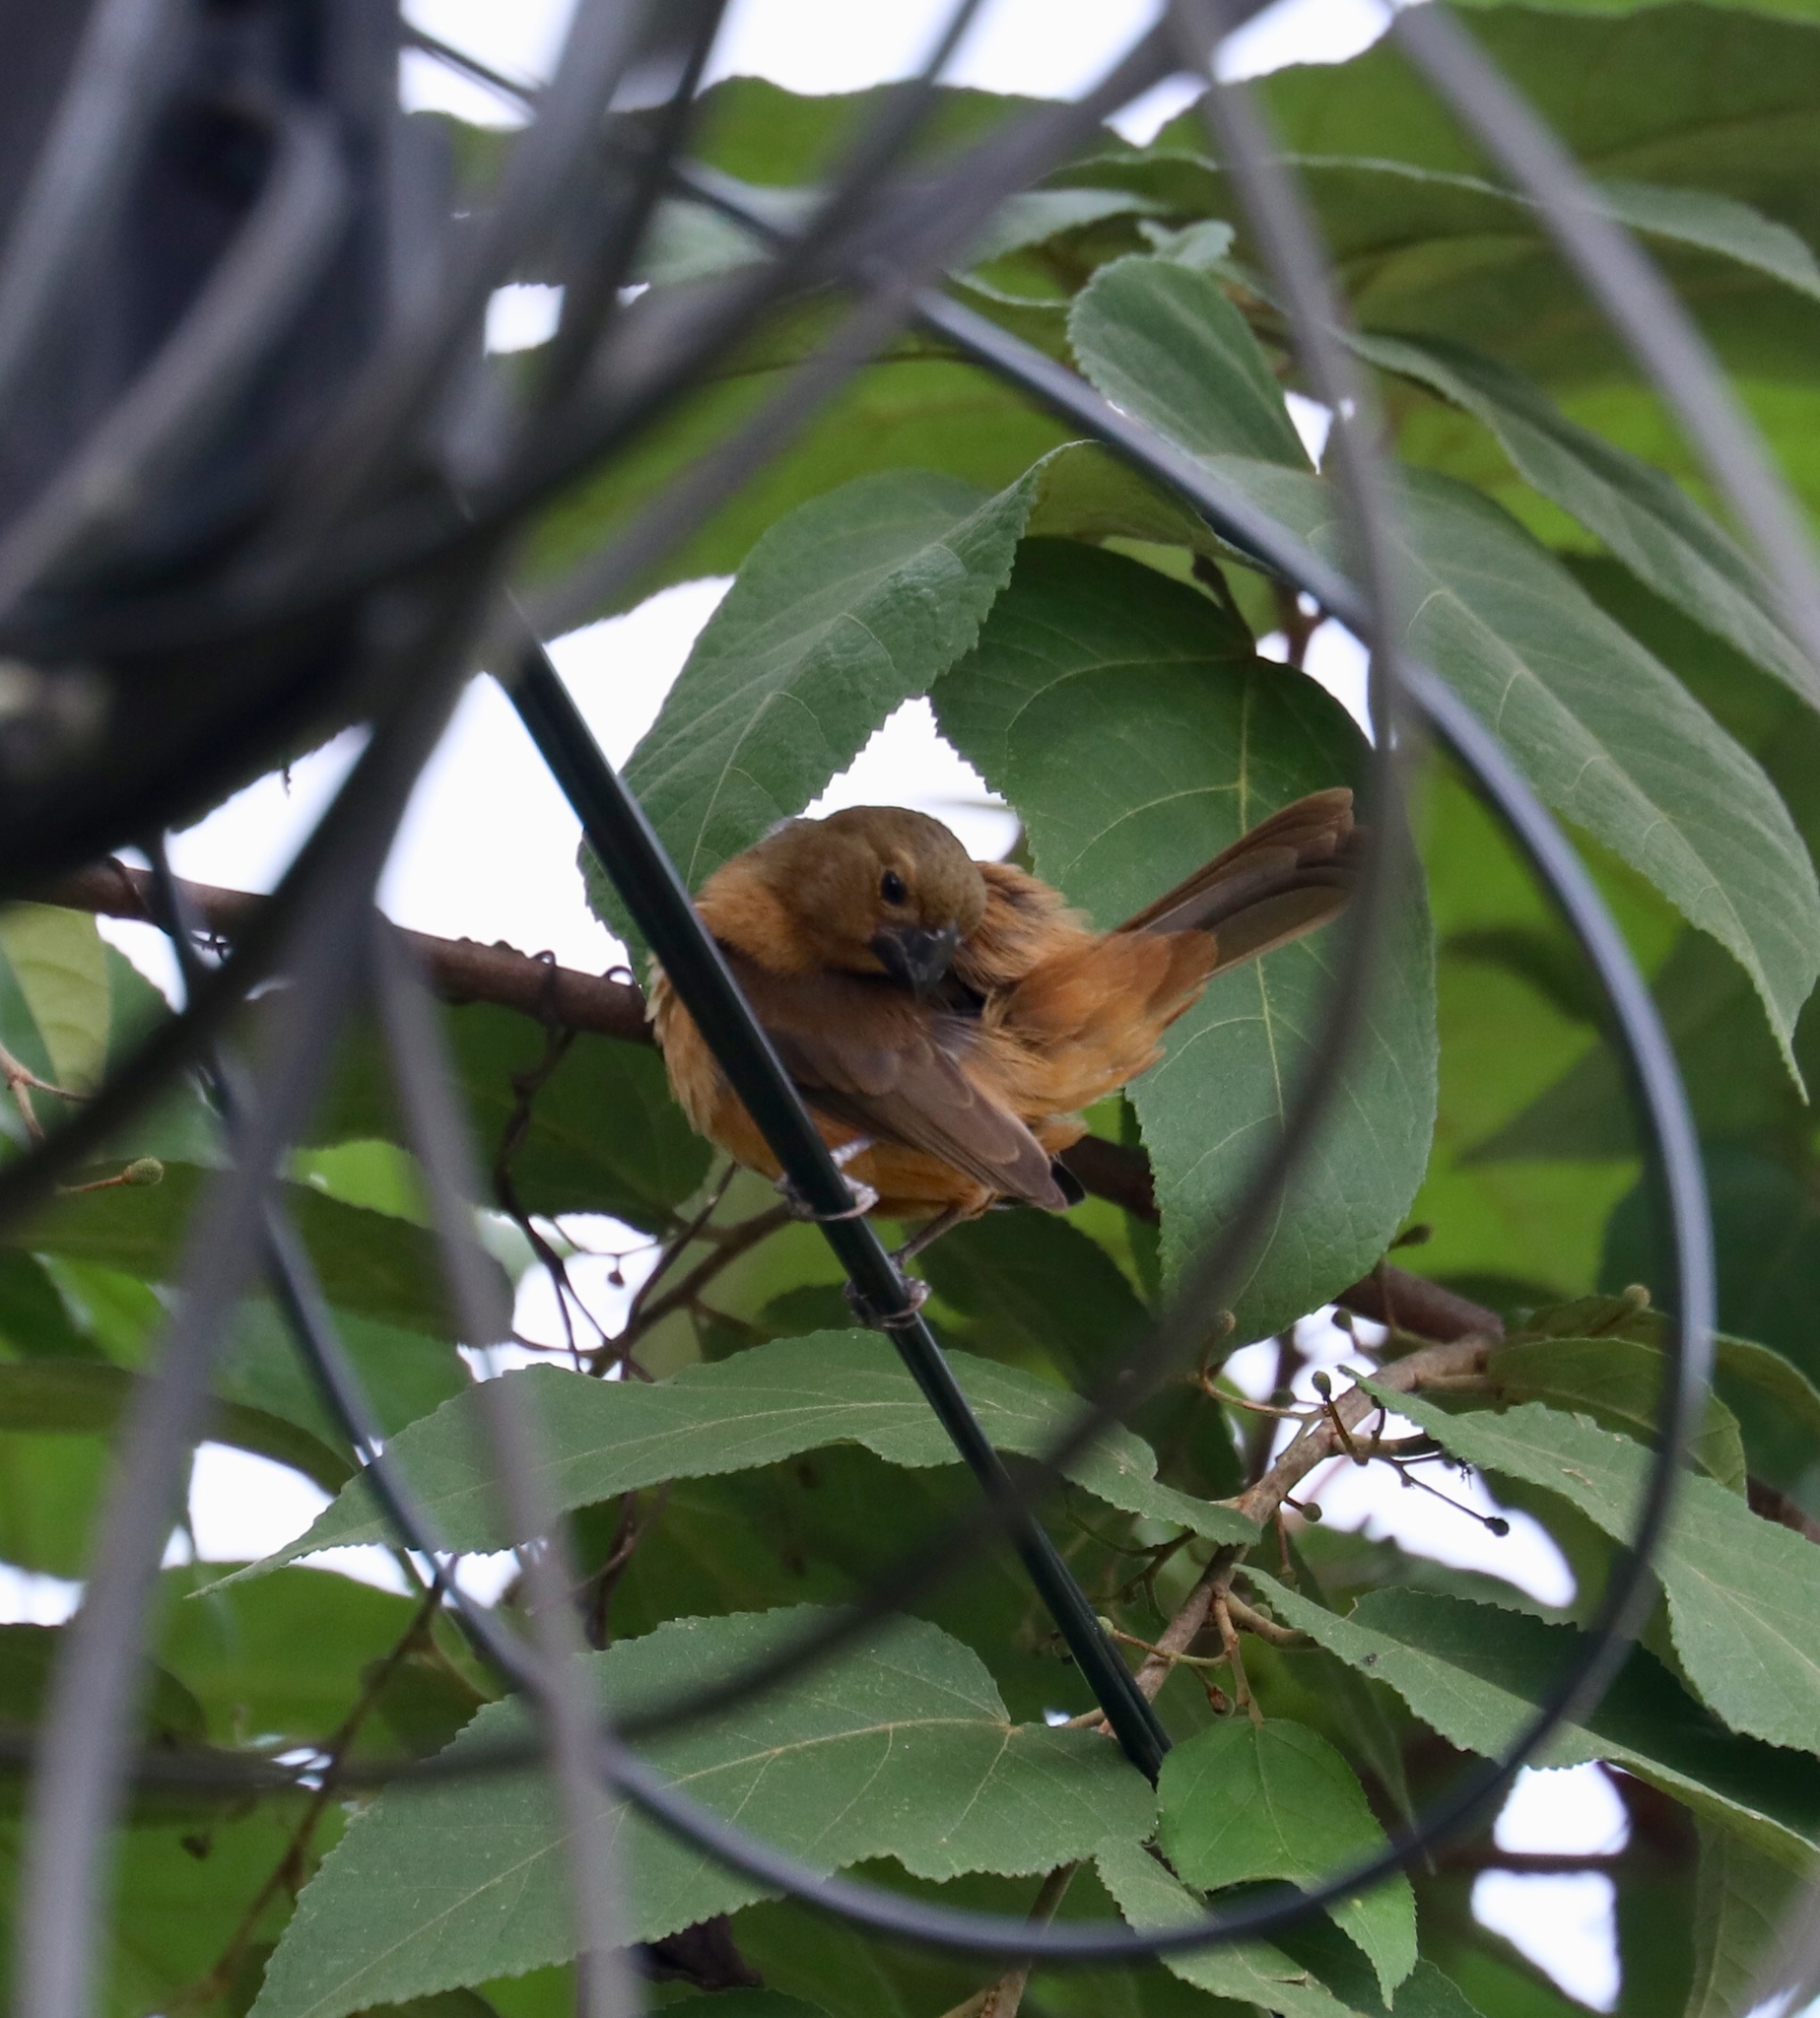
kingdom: Animalia
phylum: Chordata
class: Aves
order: Passeriformes
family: Thraupidae
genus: Sporophila
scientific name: Sporophila funerea
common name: Thick-billed seed-finch
